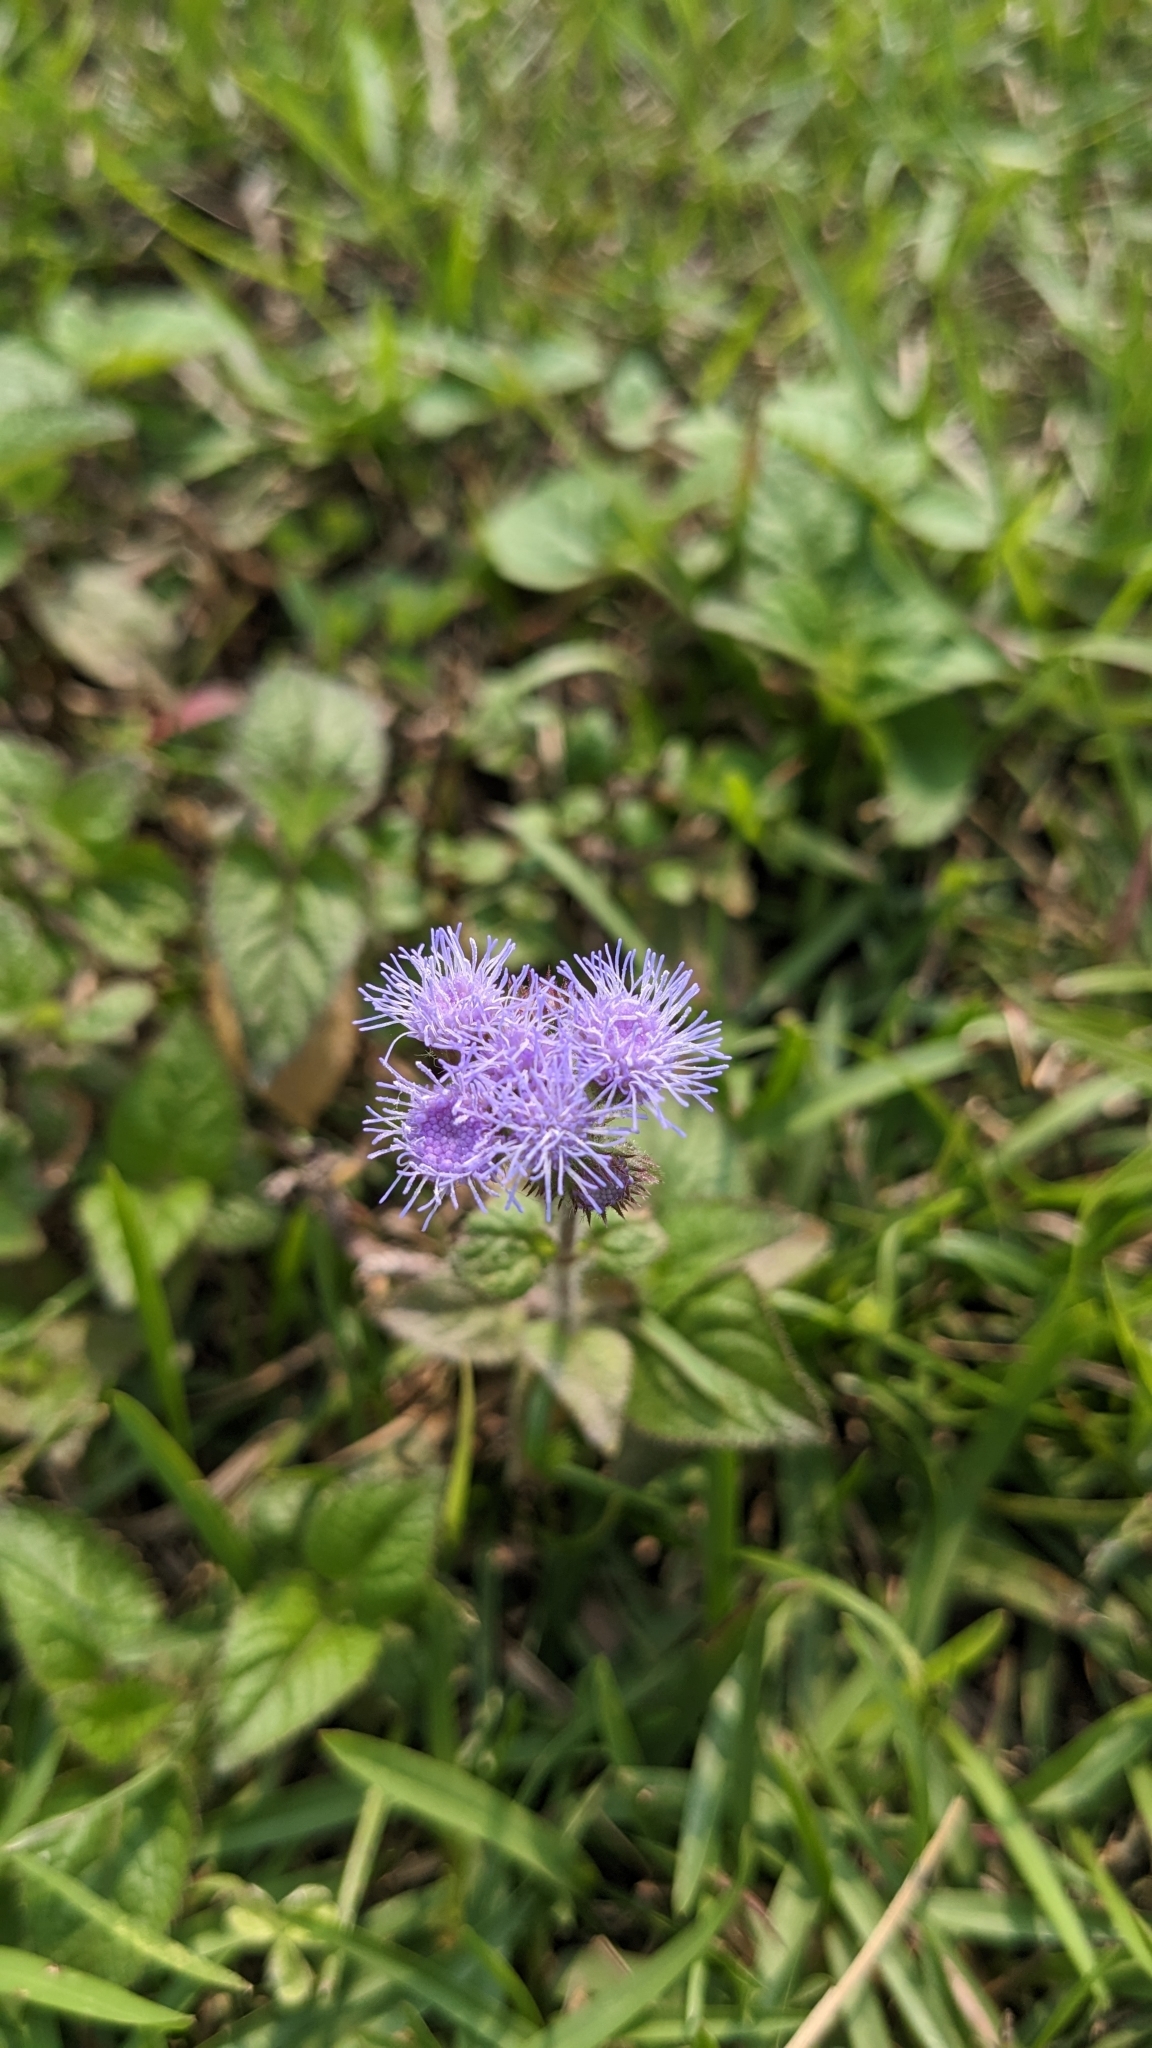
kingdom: Plantae
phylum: Tracheophyta
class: Magnoliopsida
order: Asterales
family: Asteraceae
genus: Ageratum
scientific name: Ageratum houstonianum
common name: Bluemink
